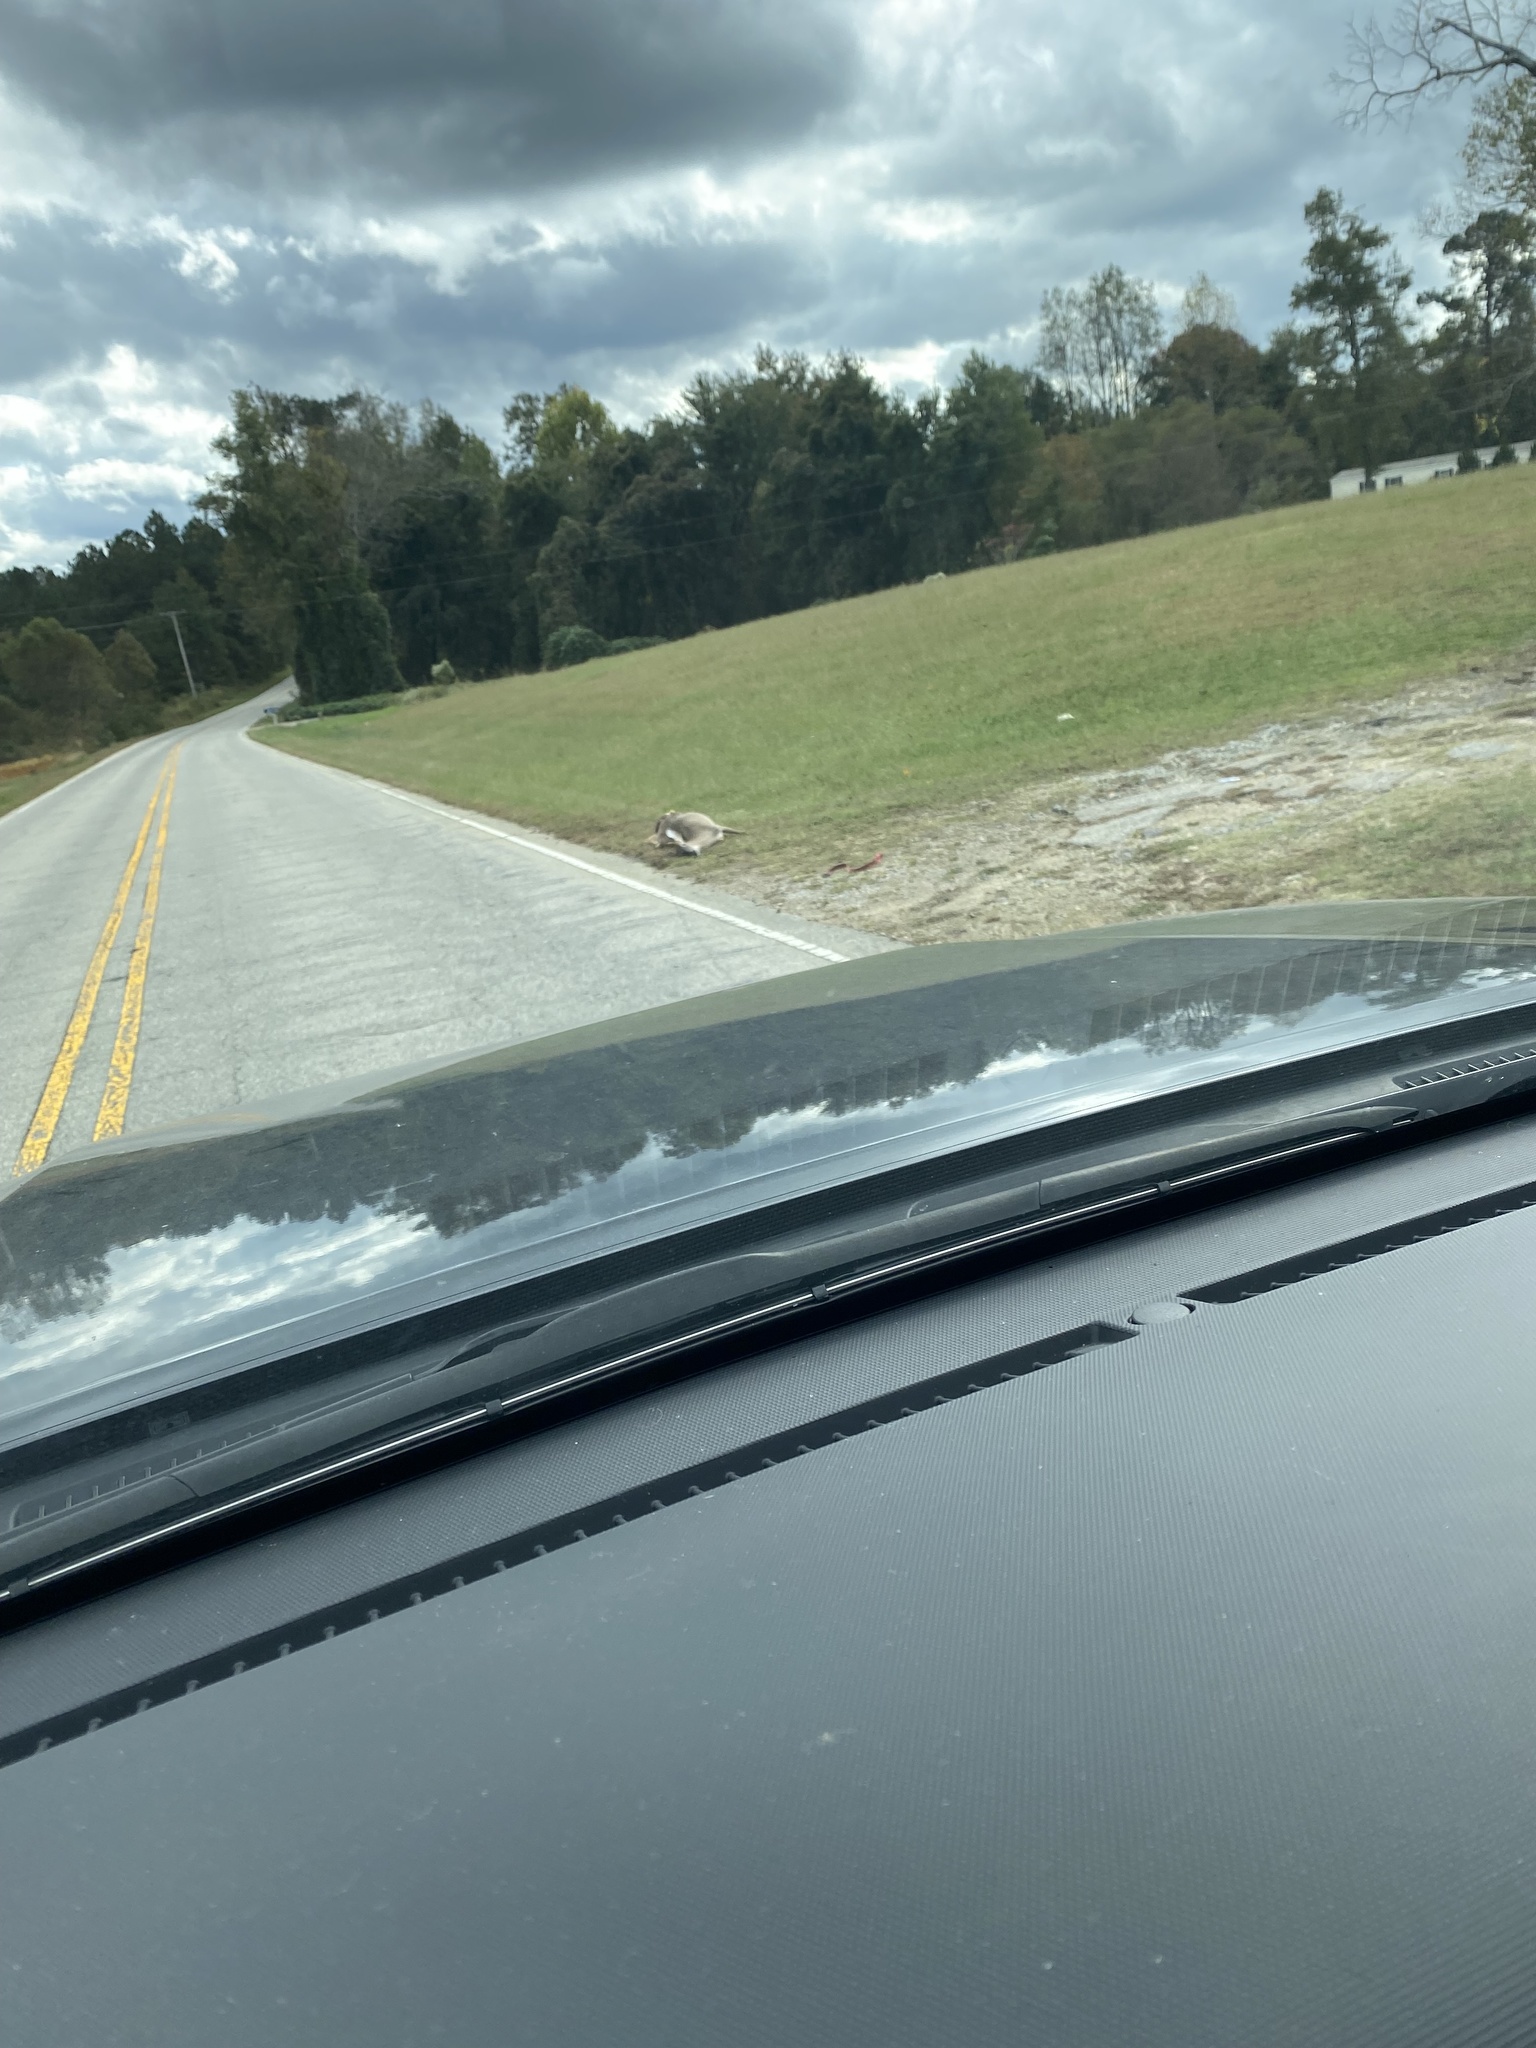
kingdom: Animalia
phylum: Chordata
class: Mammalia
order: Artiodactyla
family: Cervidae
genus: Odocoileus
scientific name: Odocoileus virginianus
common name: White-tailed deer
